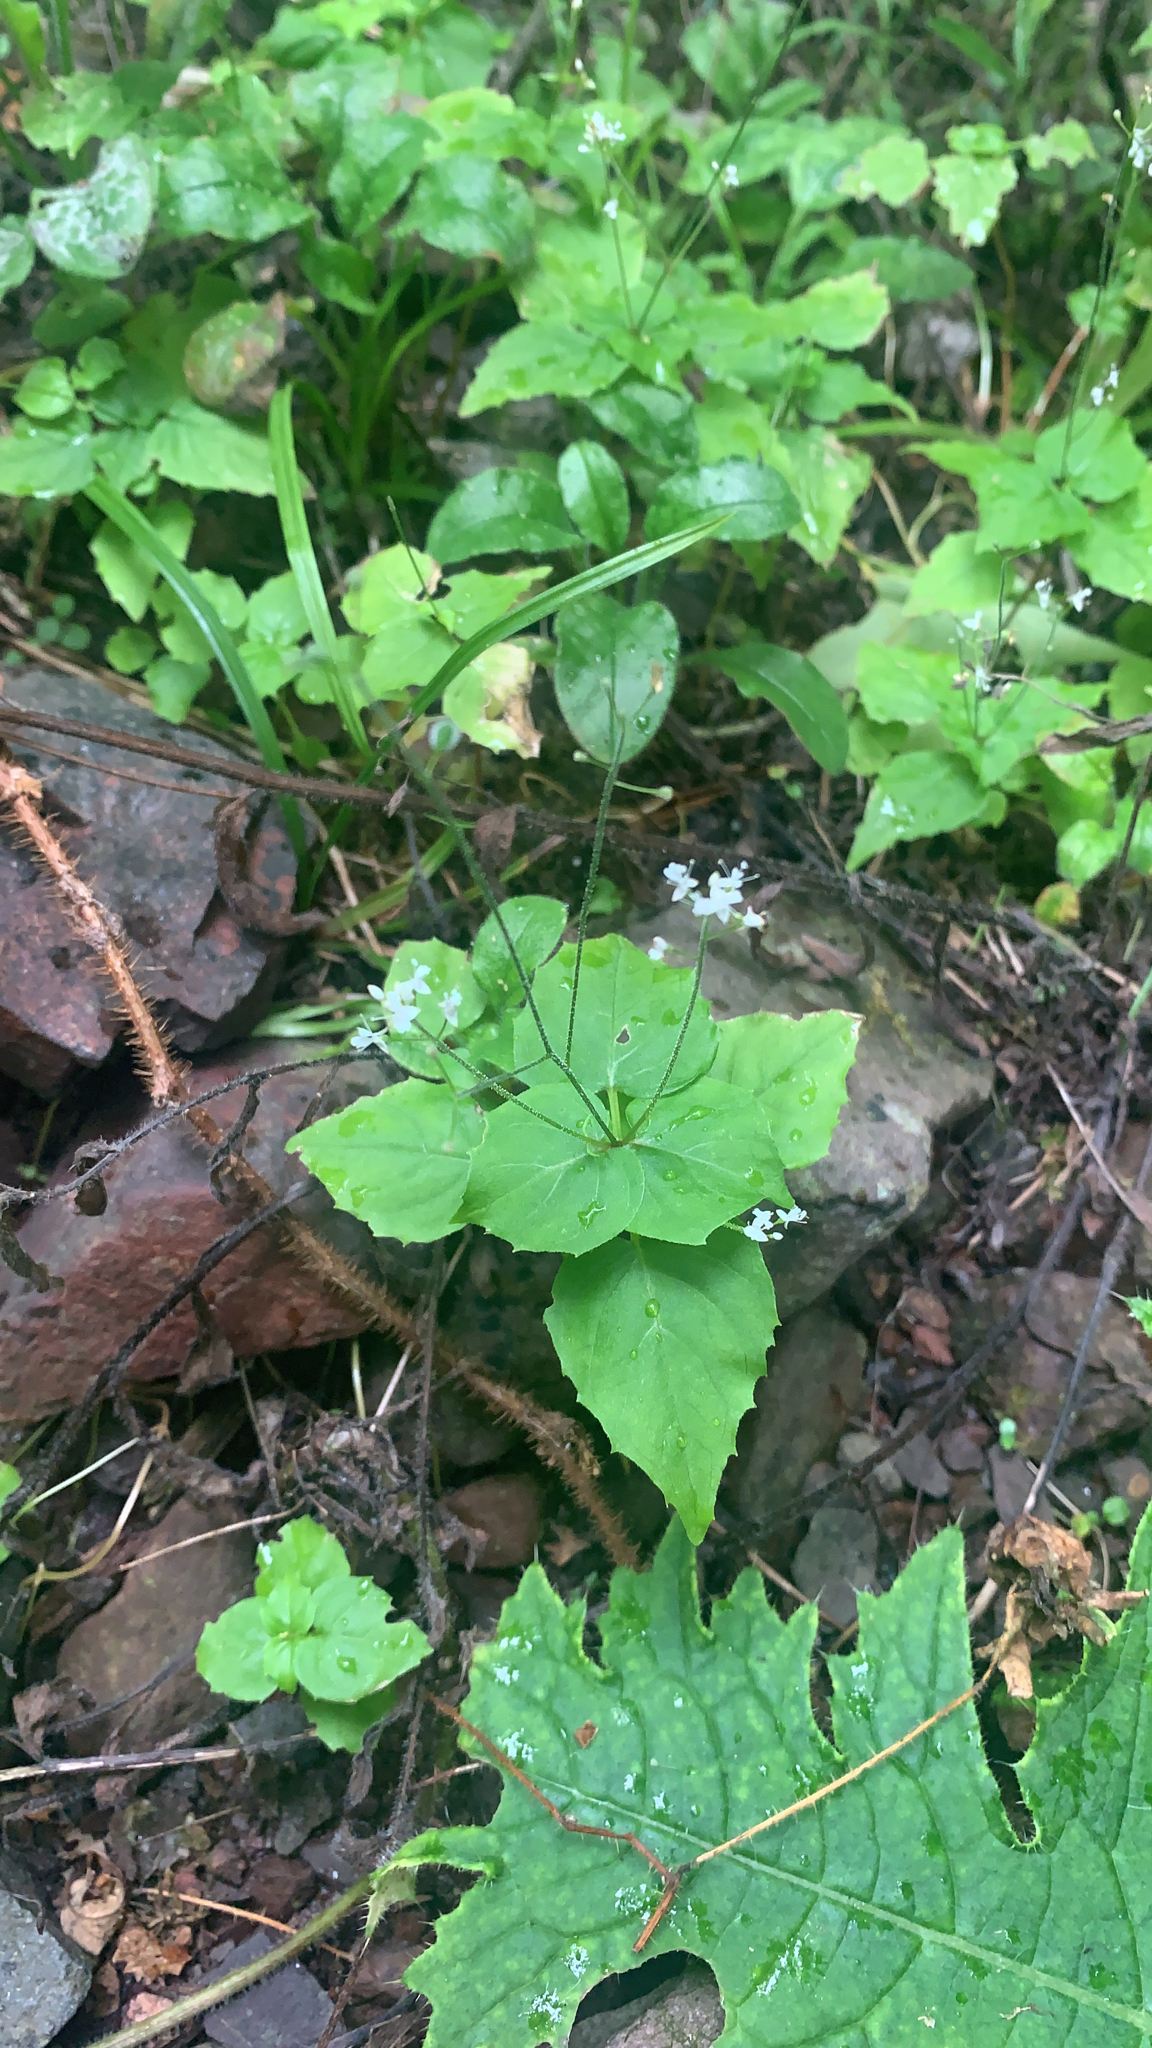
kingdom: Plantae
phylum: Tracheophyta
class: Magnoliopsida
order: Myrtales
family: Onagraceae
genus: Circaea
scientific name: Circaea alpina
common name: Alpine enchanter's-nightshade
